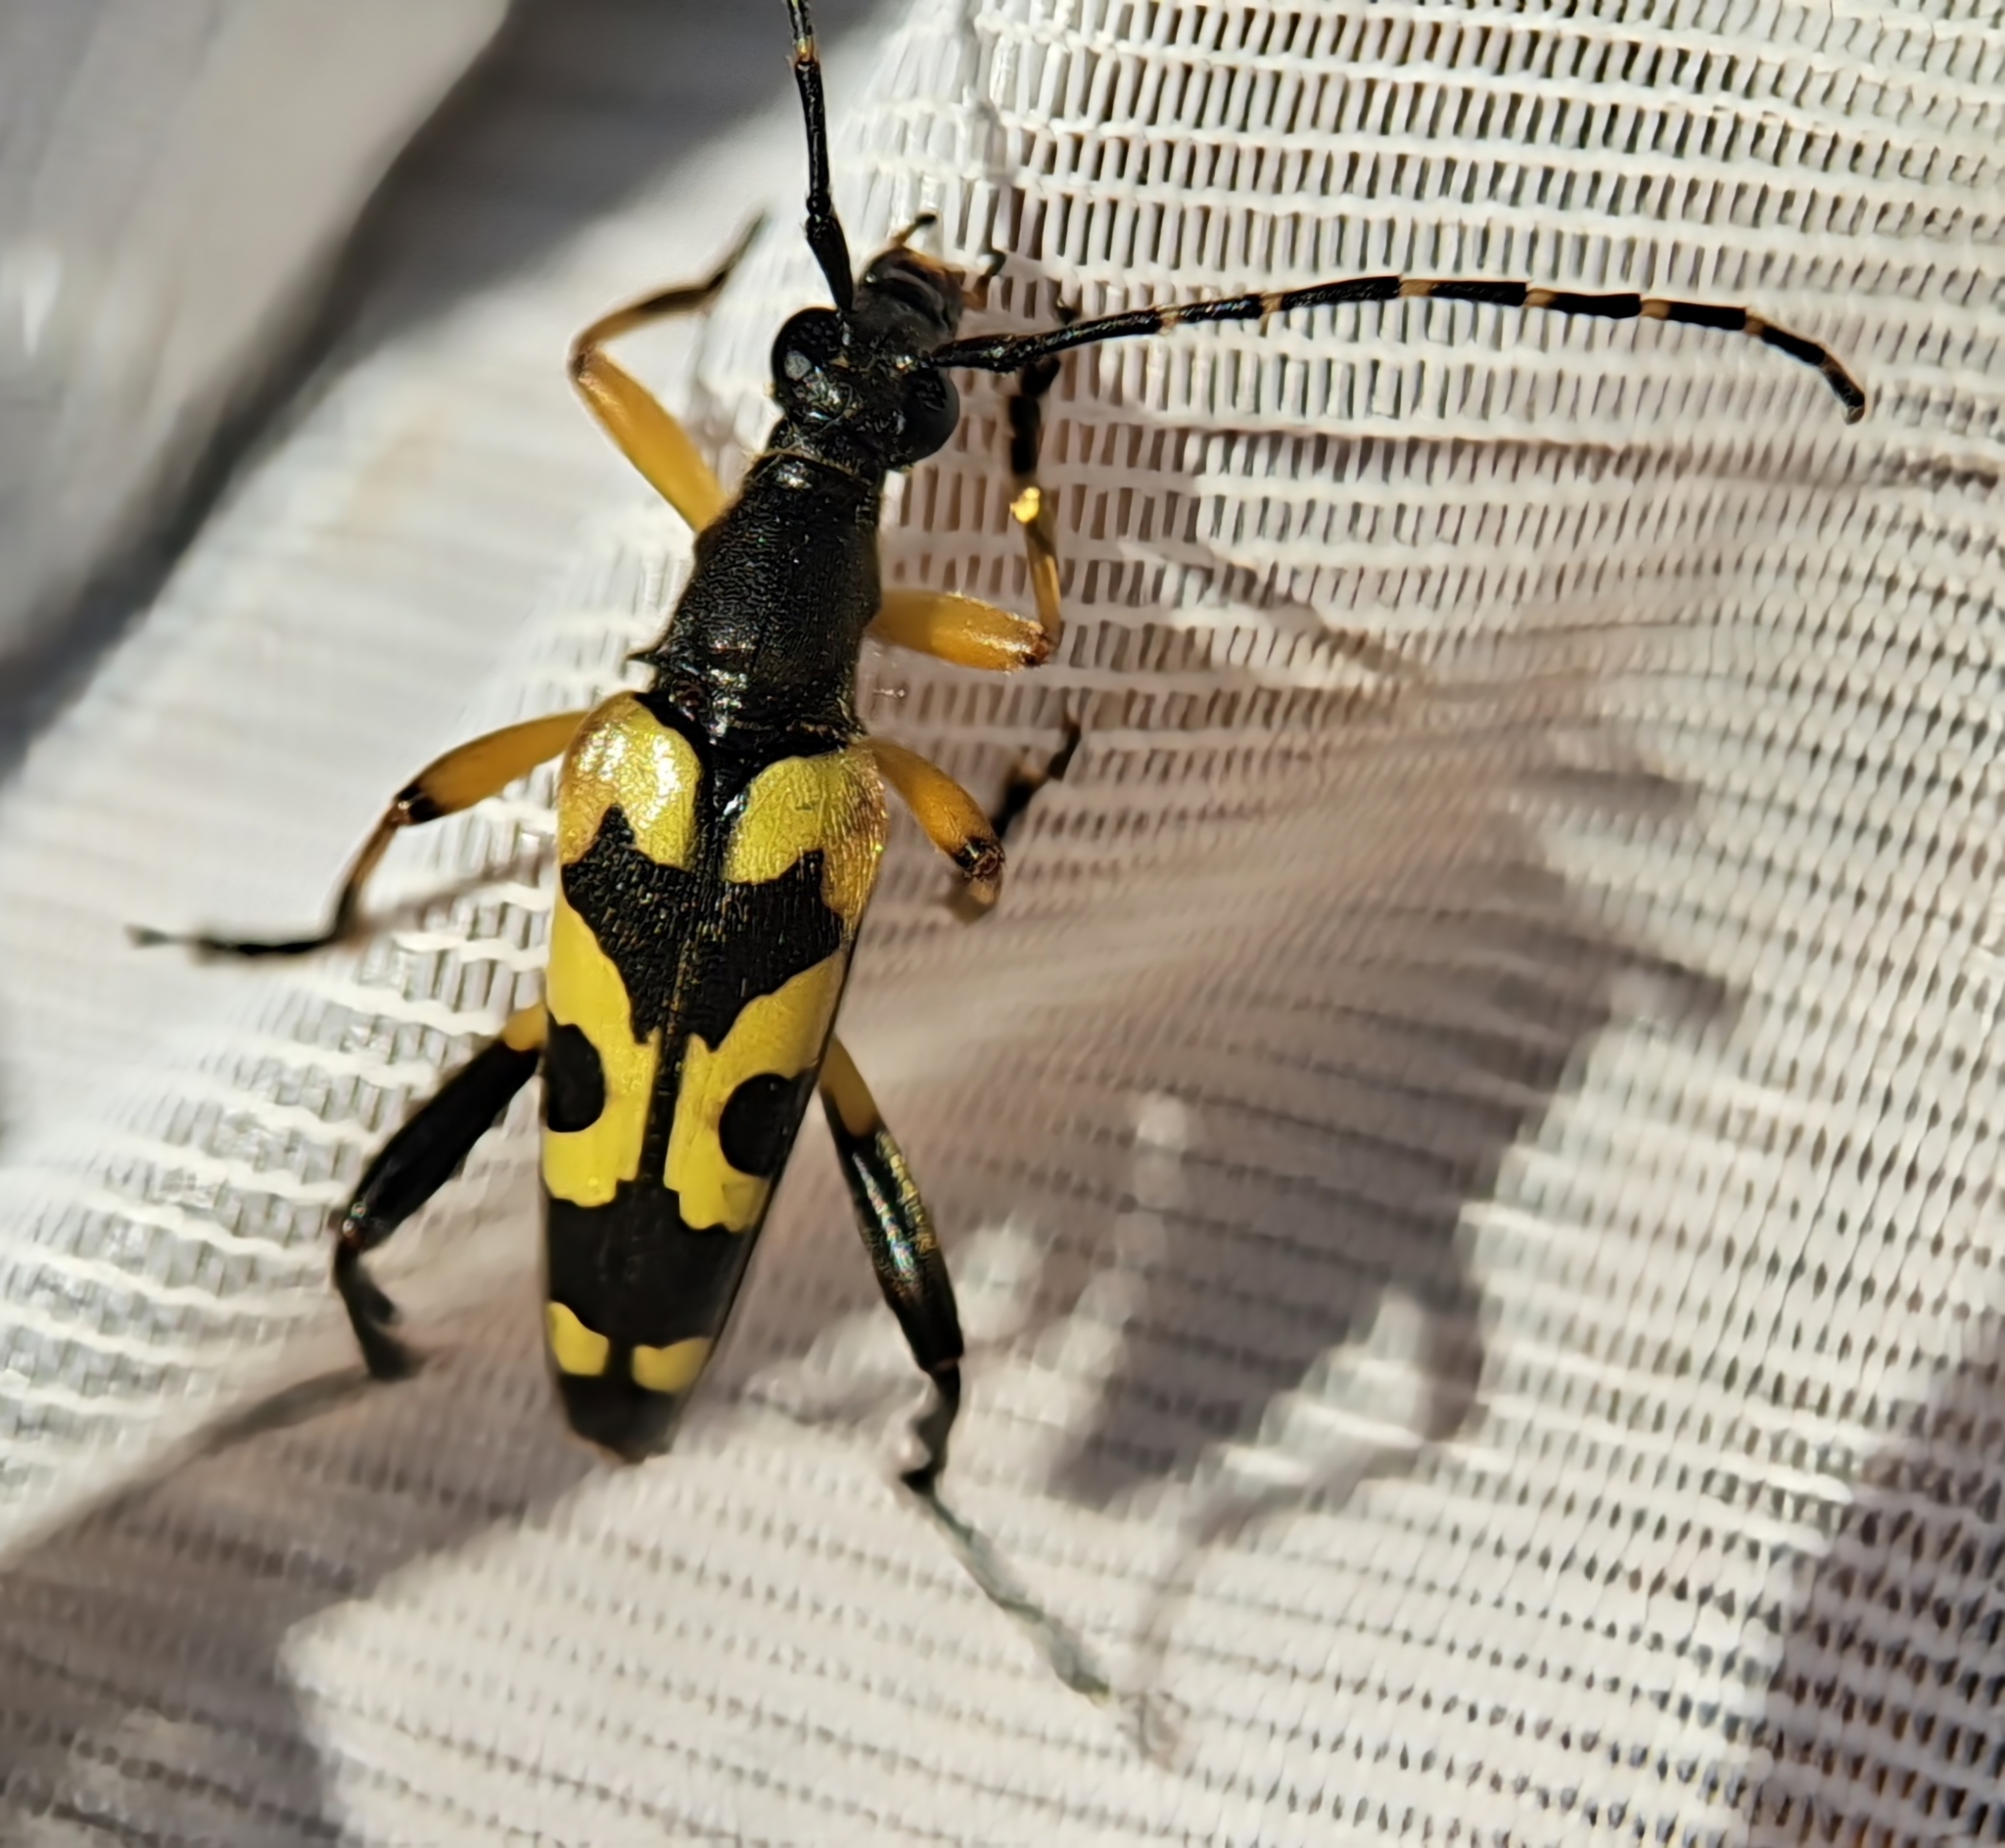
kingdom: Animalia
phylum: Arthropoda
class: Insecta
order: Coleoptera
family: Cerambycidae
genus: Rutpela
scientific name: Rutpela maculata
